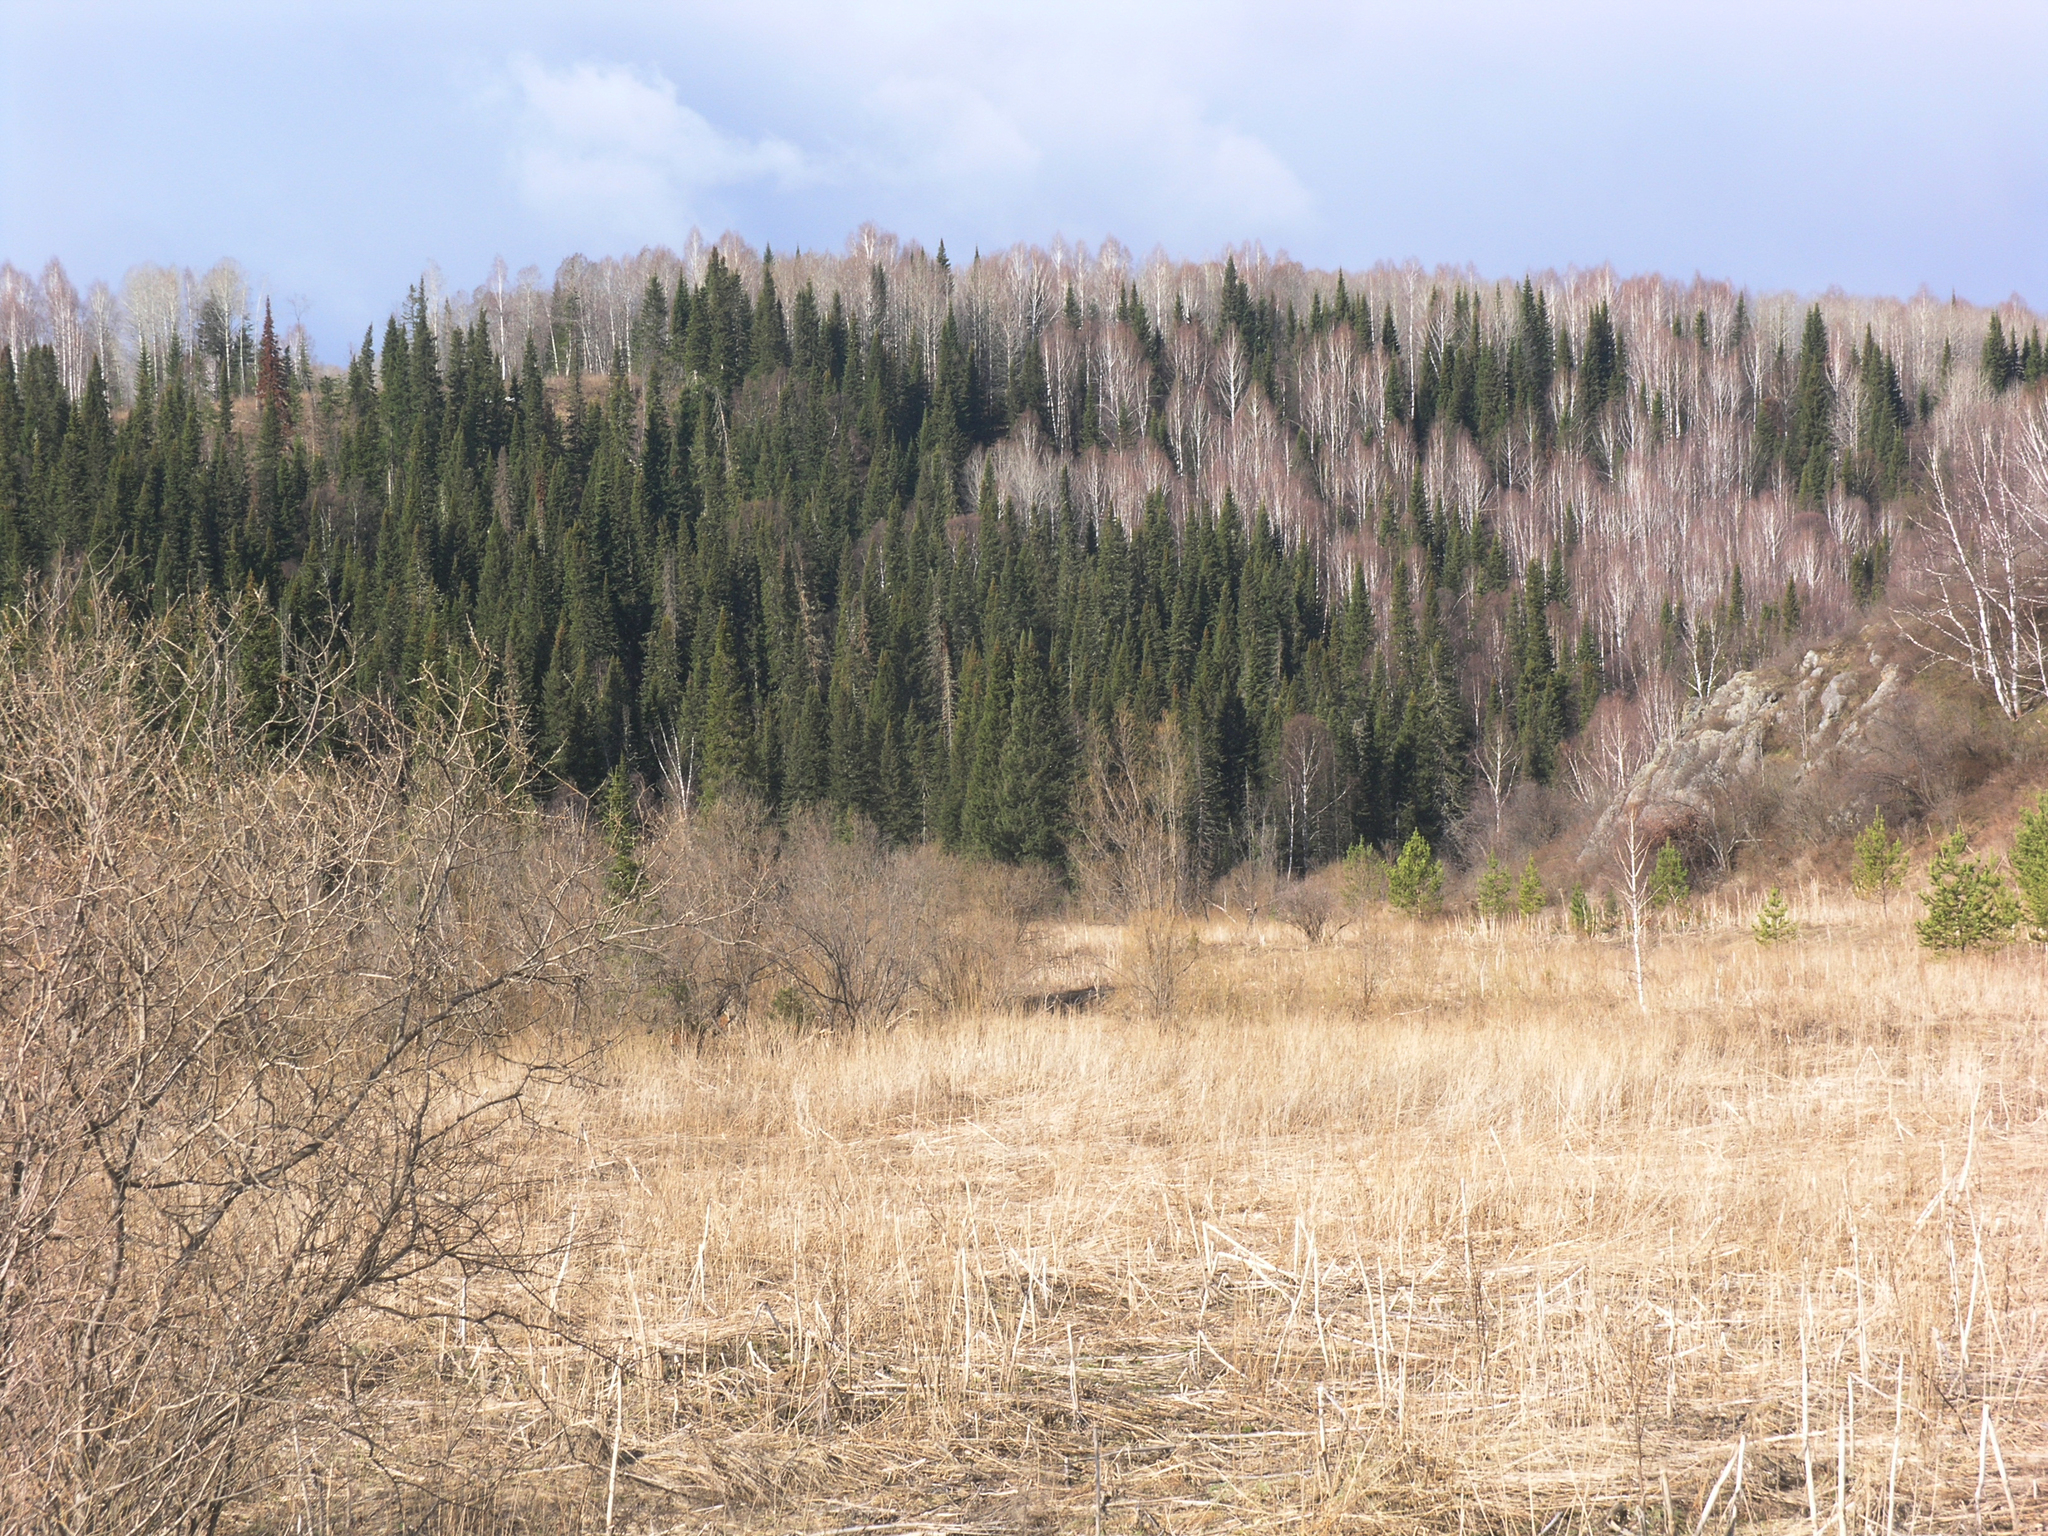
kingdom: Plantae
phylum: Tracheophyta
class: Pinopsida
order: Pinales
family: Pinaceae
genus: Abies
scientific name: Abies sibirica
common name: Siberian fir
